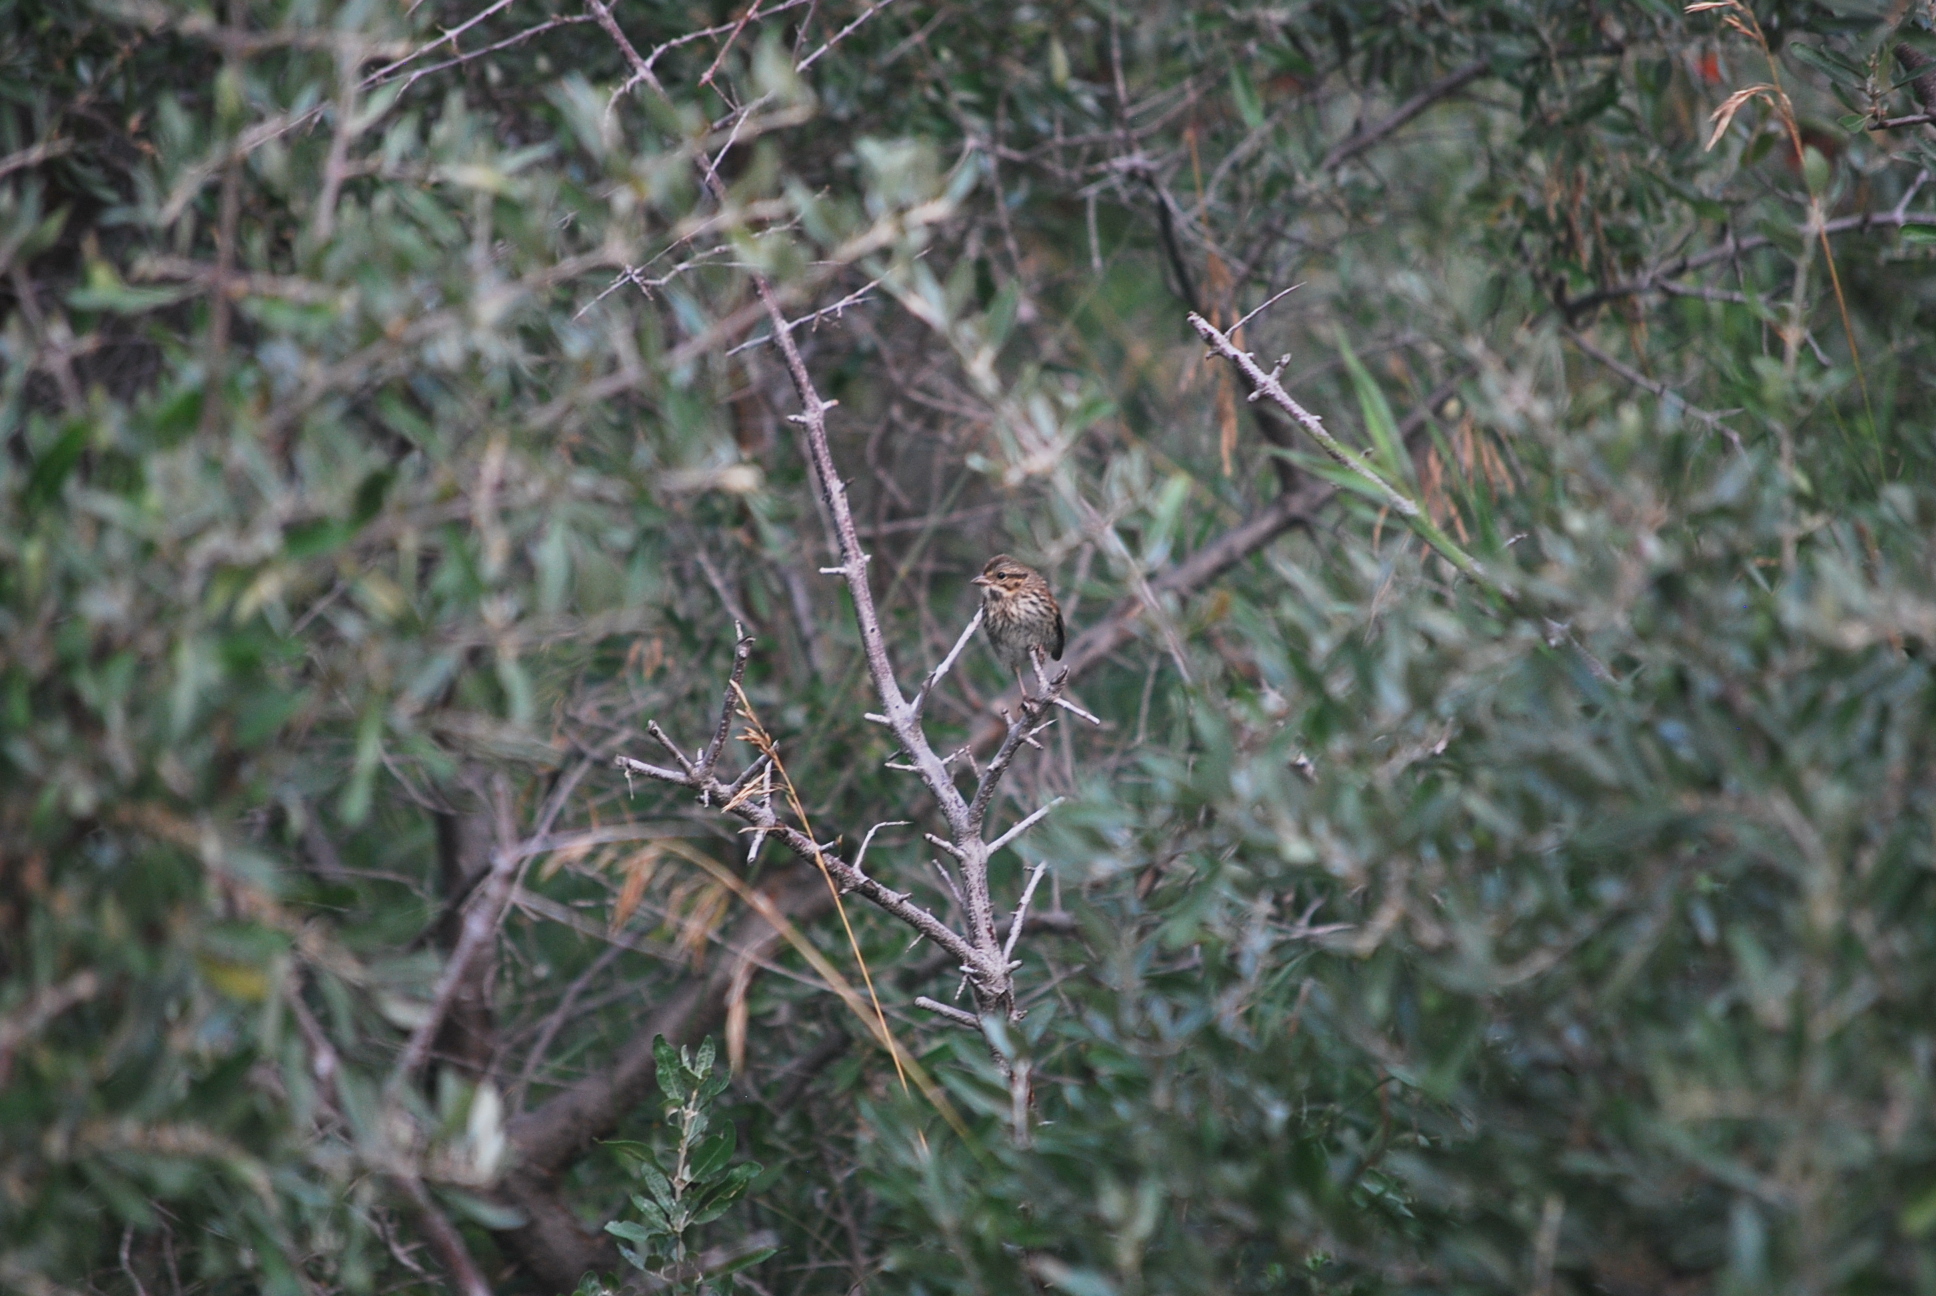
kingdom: Animalia
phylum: Chordata
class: Aves
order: Passeriformes
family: Passerellidae
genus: Melospiza
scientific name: Melospiza melodia
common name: Song sparrow
